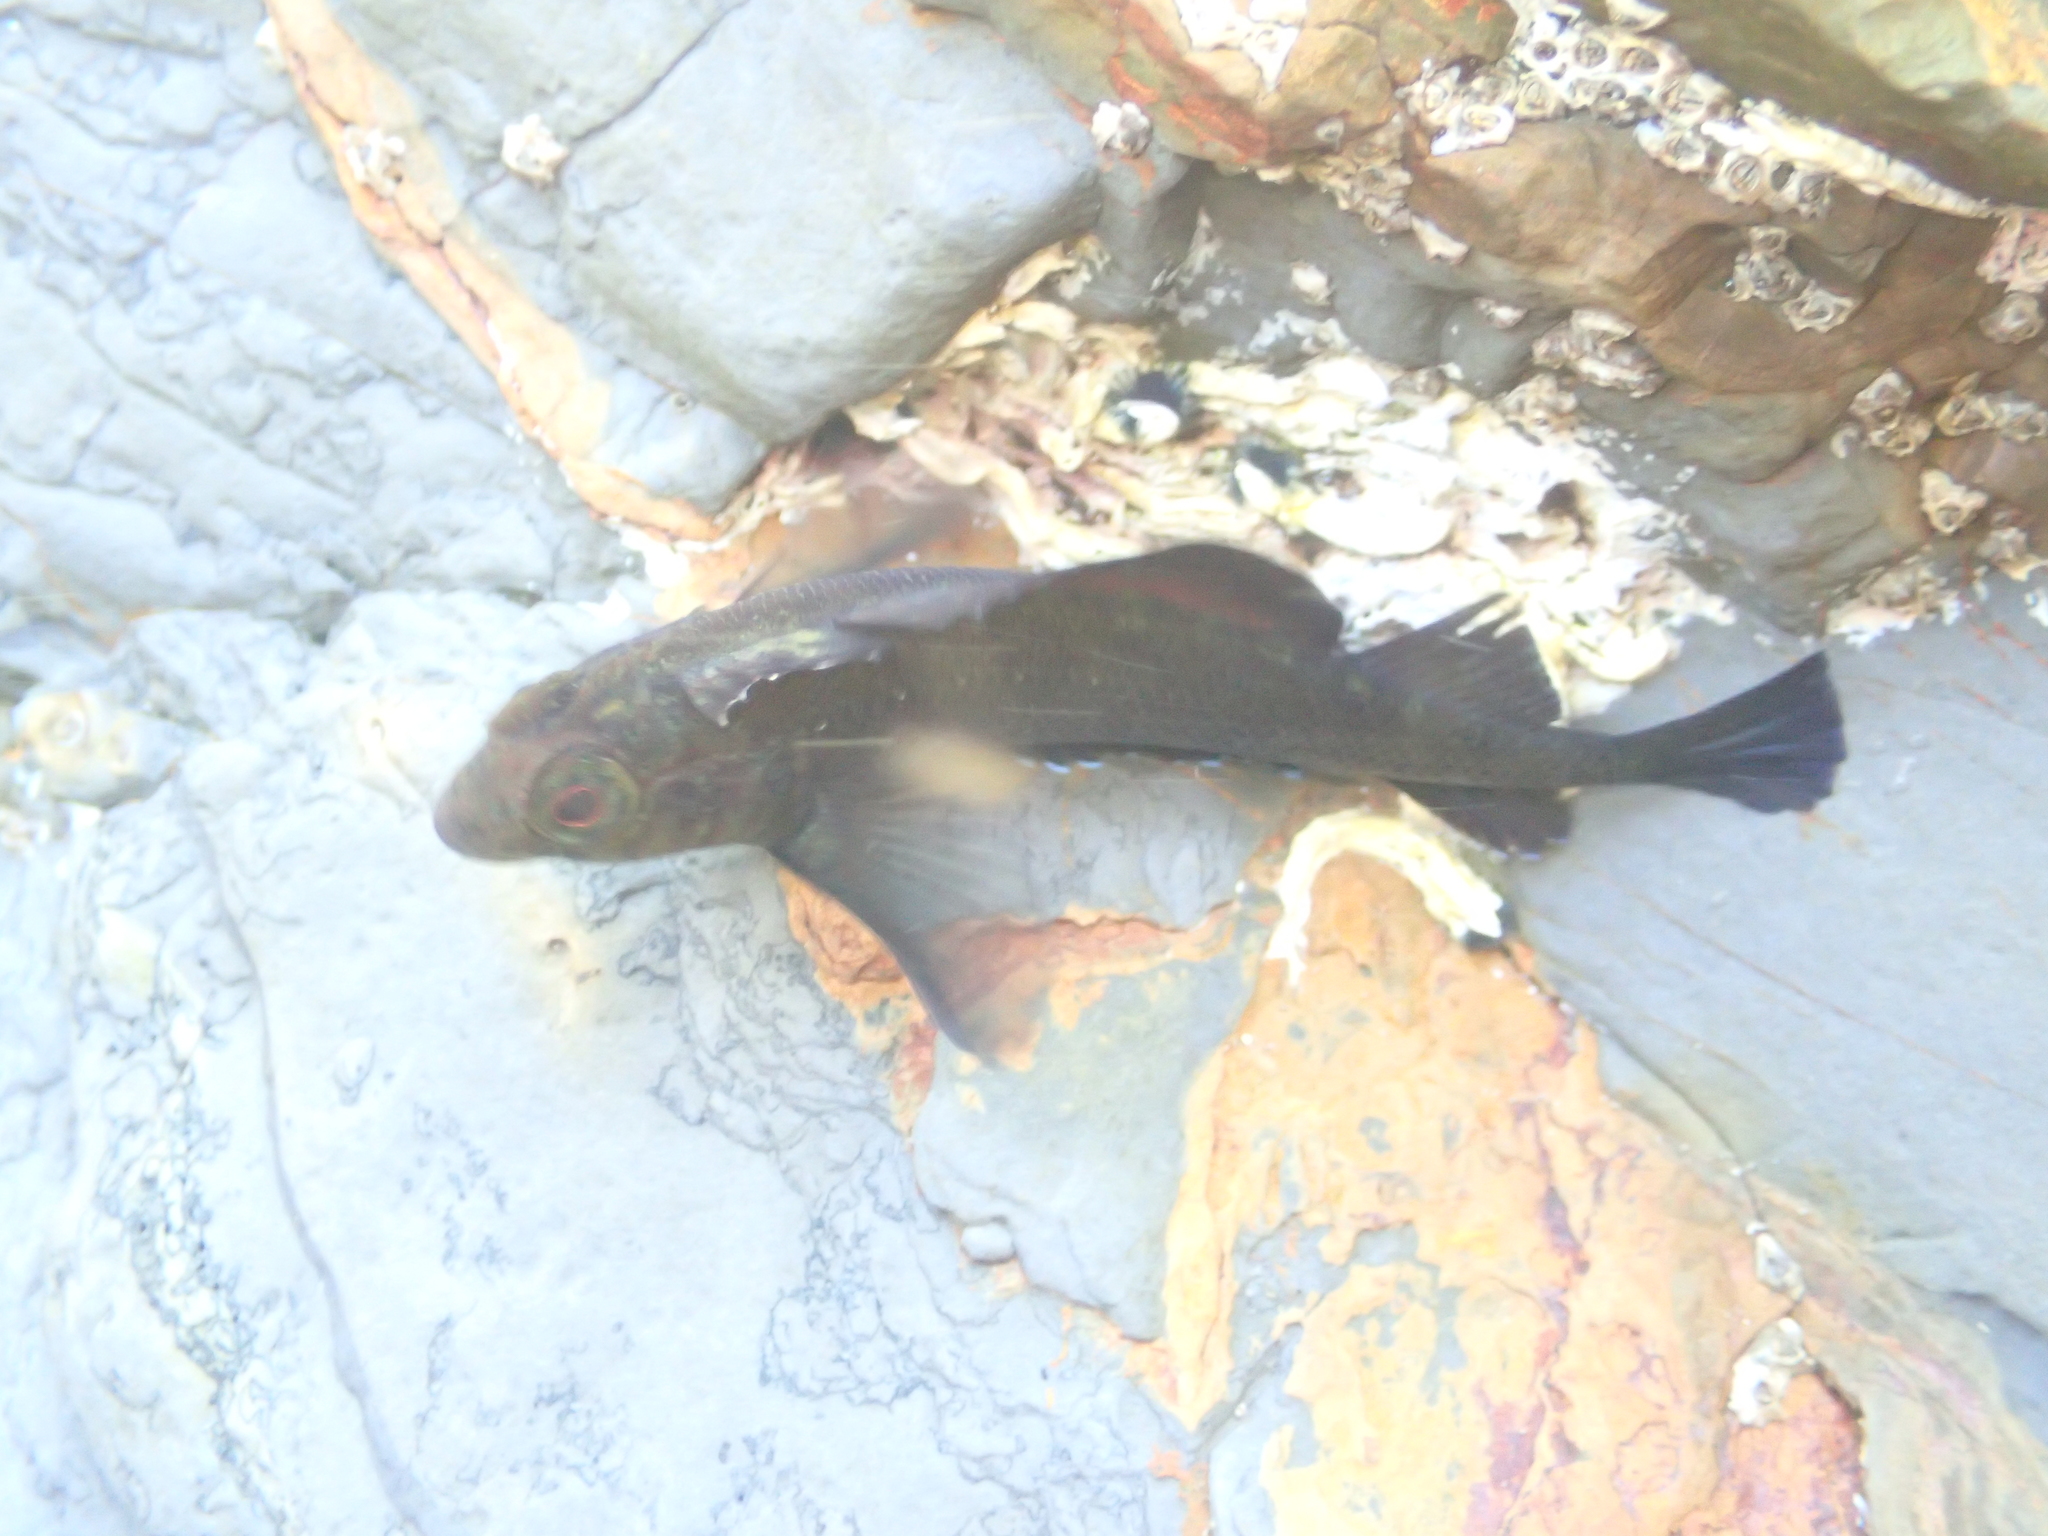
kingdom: Animalia
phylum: Chordata
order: Perciformes
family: Tripterygiidae
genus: Forsterygion
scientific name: Forsterygion lapillum
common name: Common triplefin
